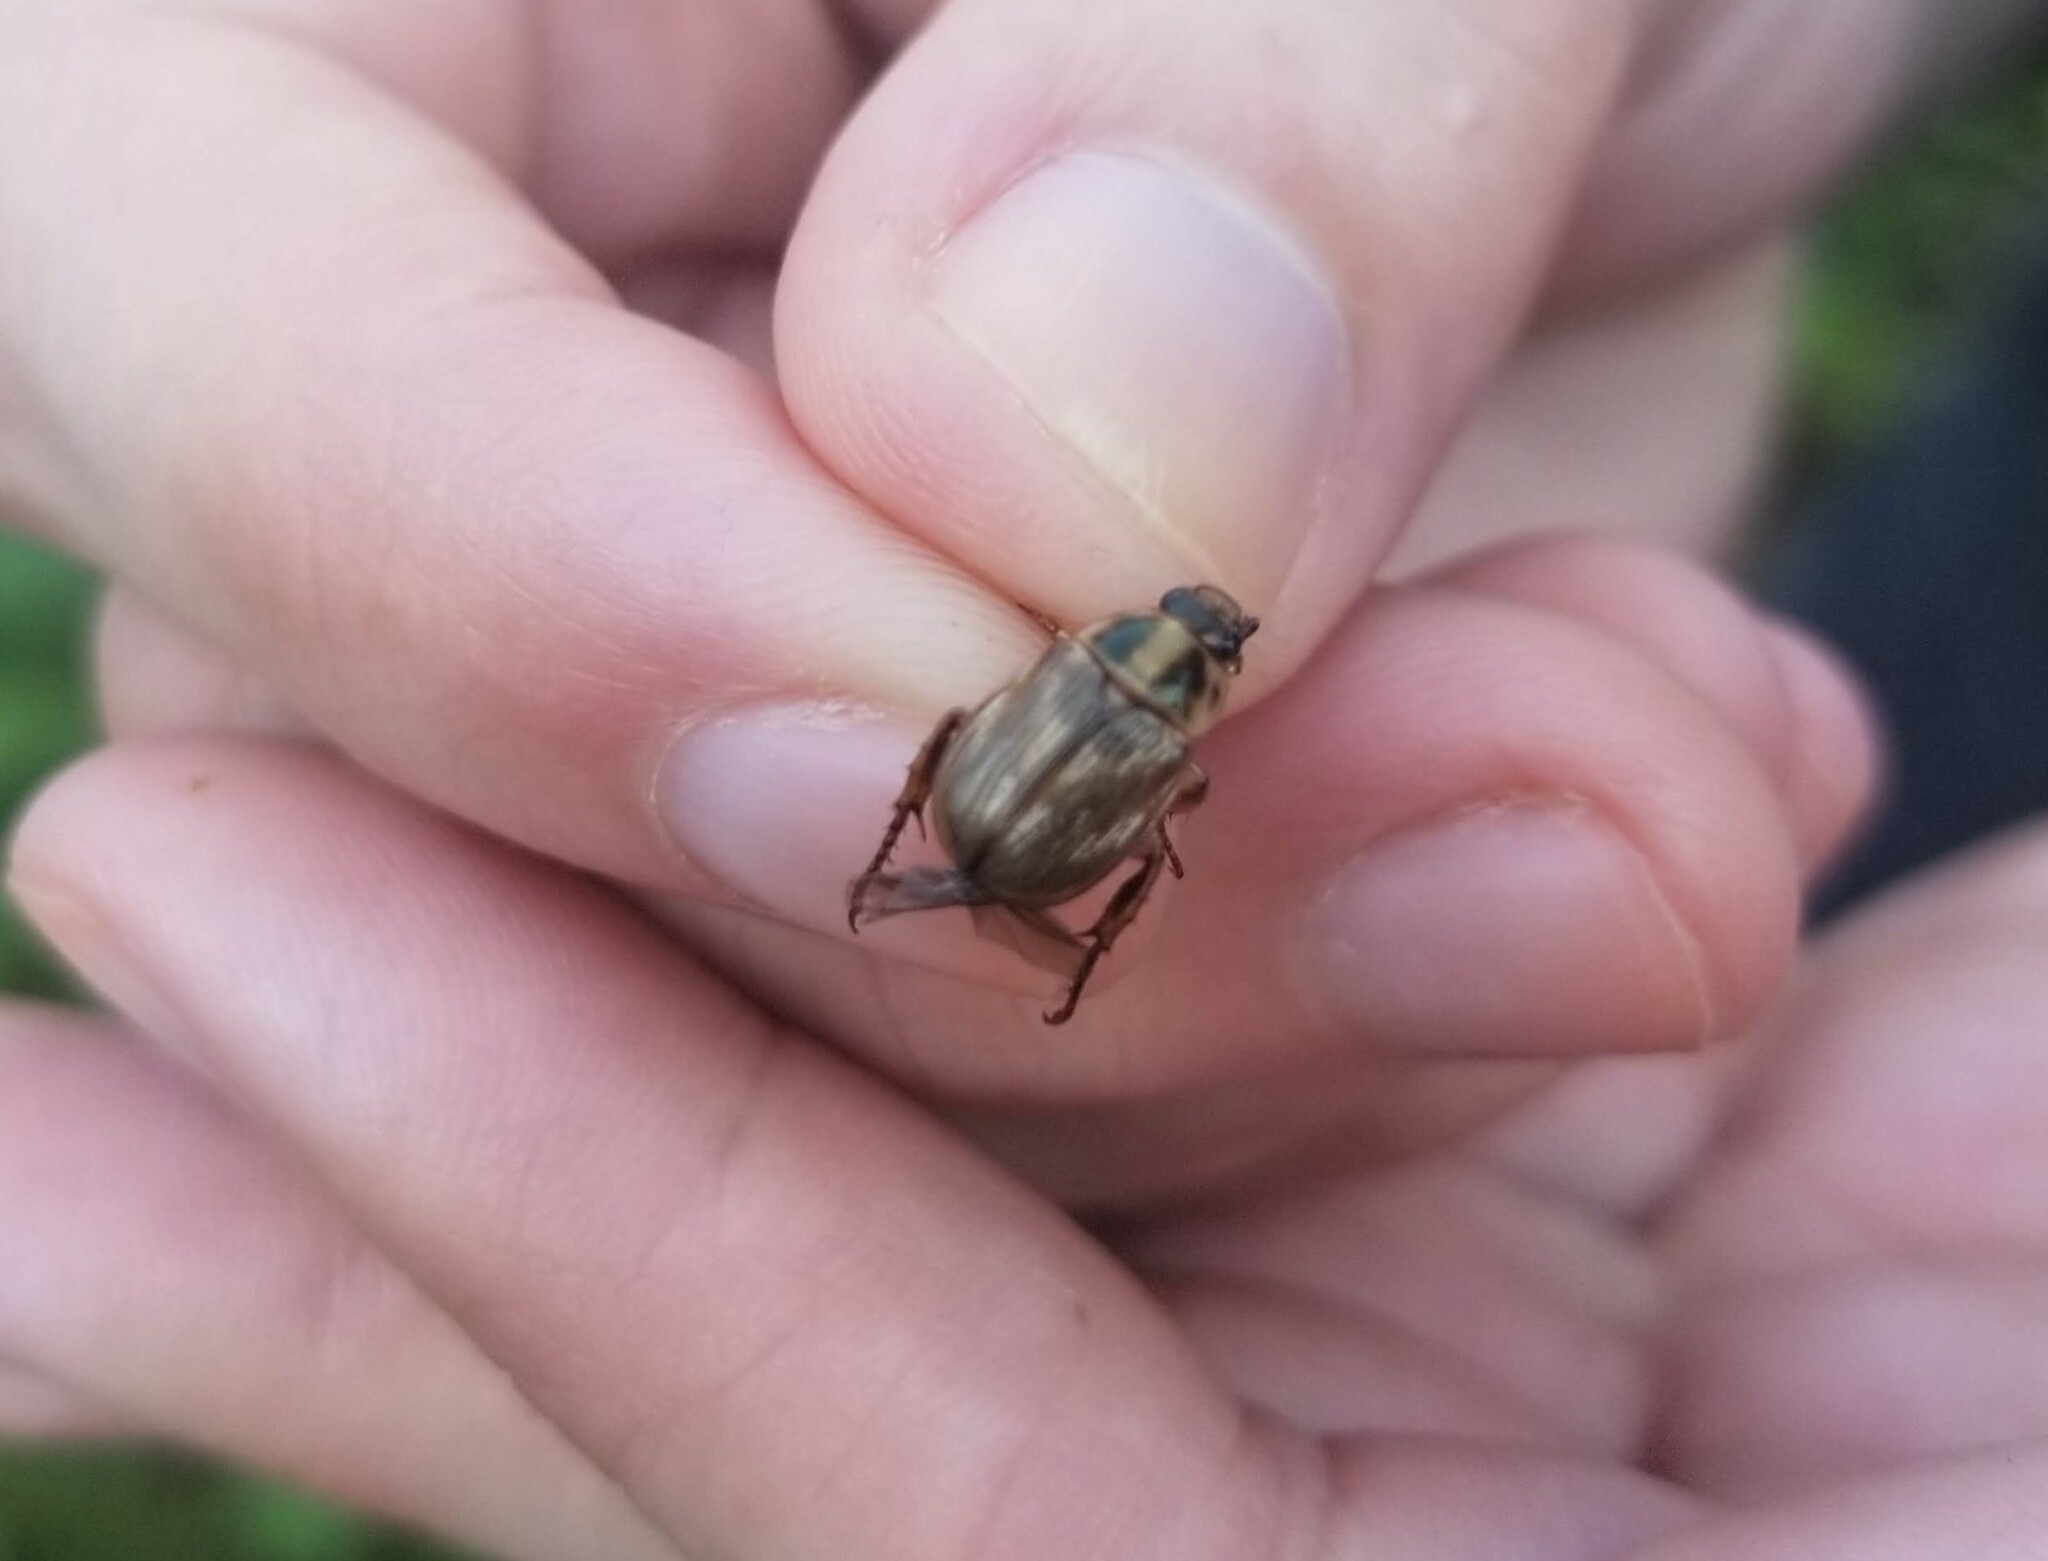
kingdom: Animalia
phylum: Arthropoda
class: Insecta
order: Coleoptera
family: Scarabaeidae
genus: Exomala
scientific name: Exomala orientalis
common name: Oriental beetle
